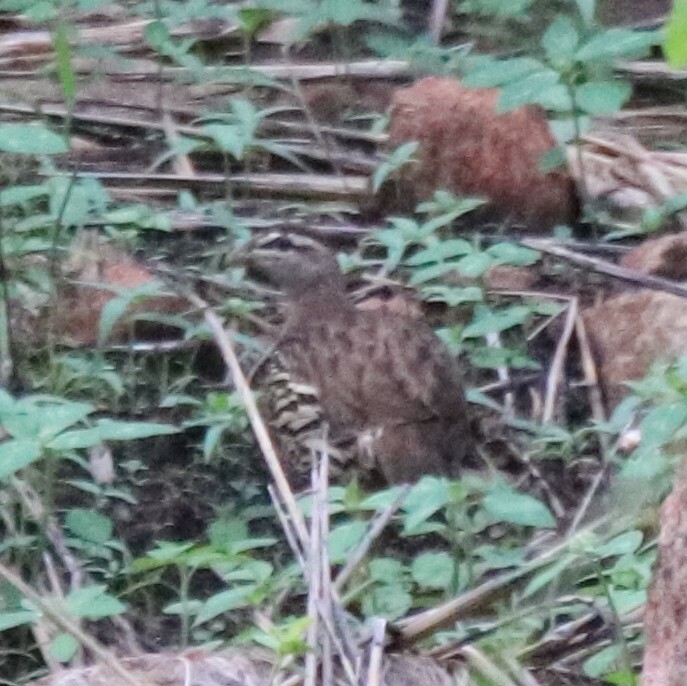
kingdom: Animalia
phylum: Chordata
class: Aves
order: Galliformes
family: Phasianidae
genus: Pternistis
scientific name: Pternistis bicalcaratus
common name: Double-spurred francolin
